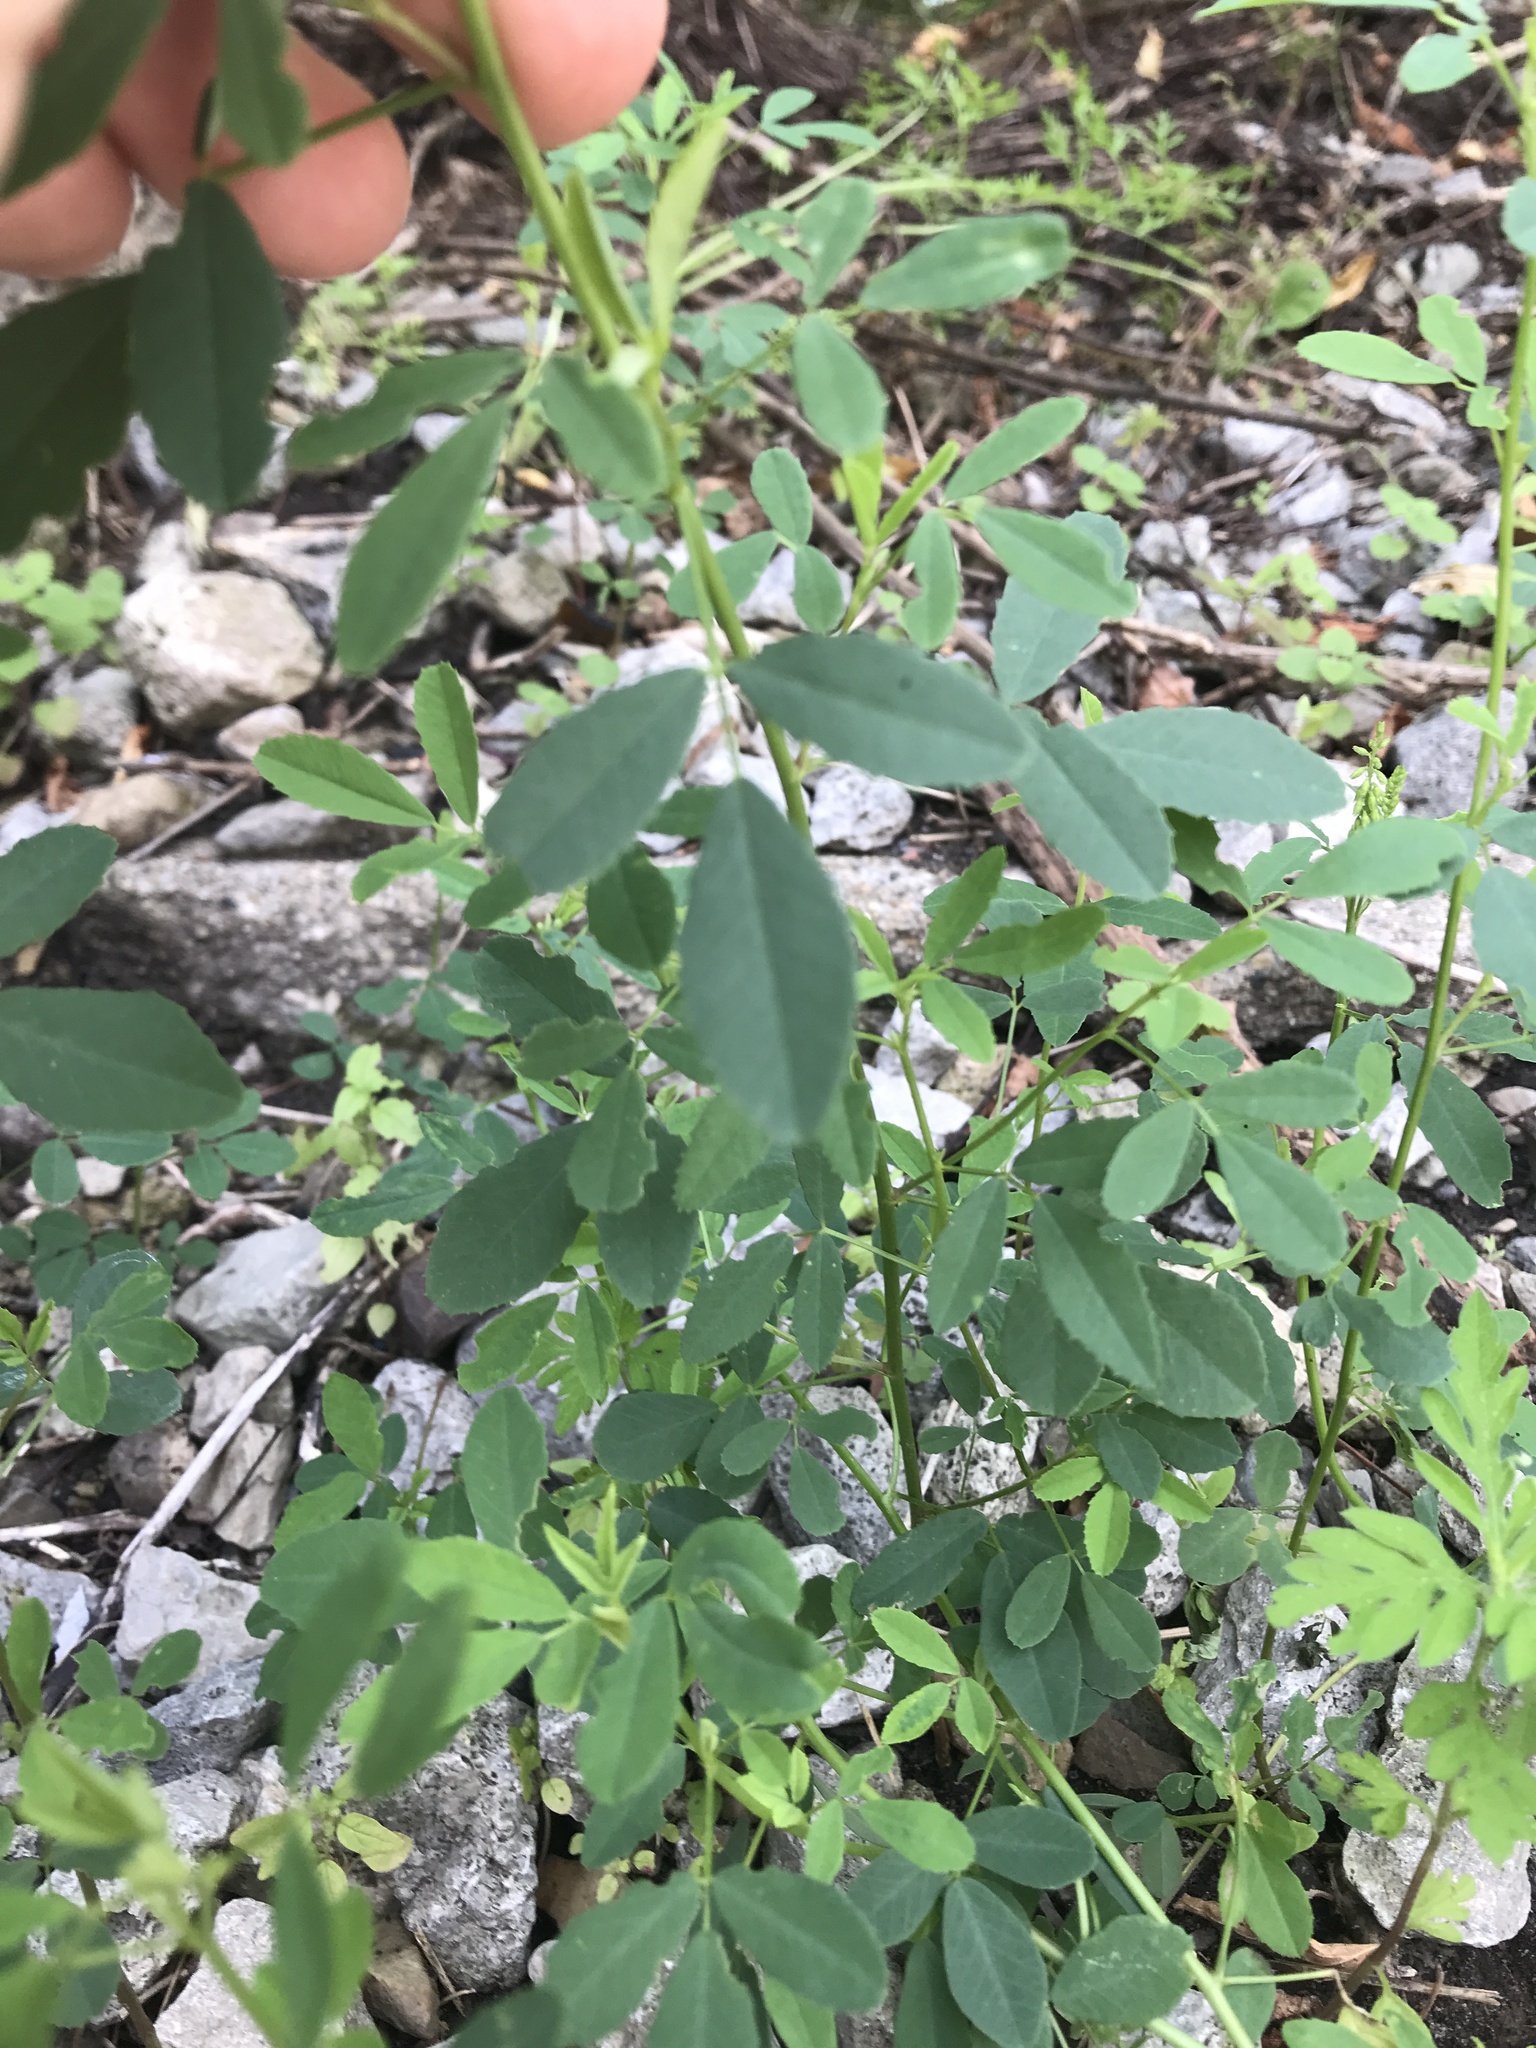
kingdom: Plantae
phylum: Tracheophyta
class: Magnoliopsida
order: Fabales
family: Fabaceae
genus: Melilotus
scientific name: Melilotus albus
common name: White melilot
